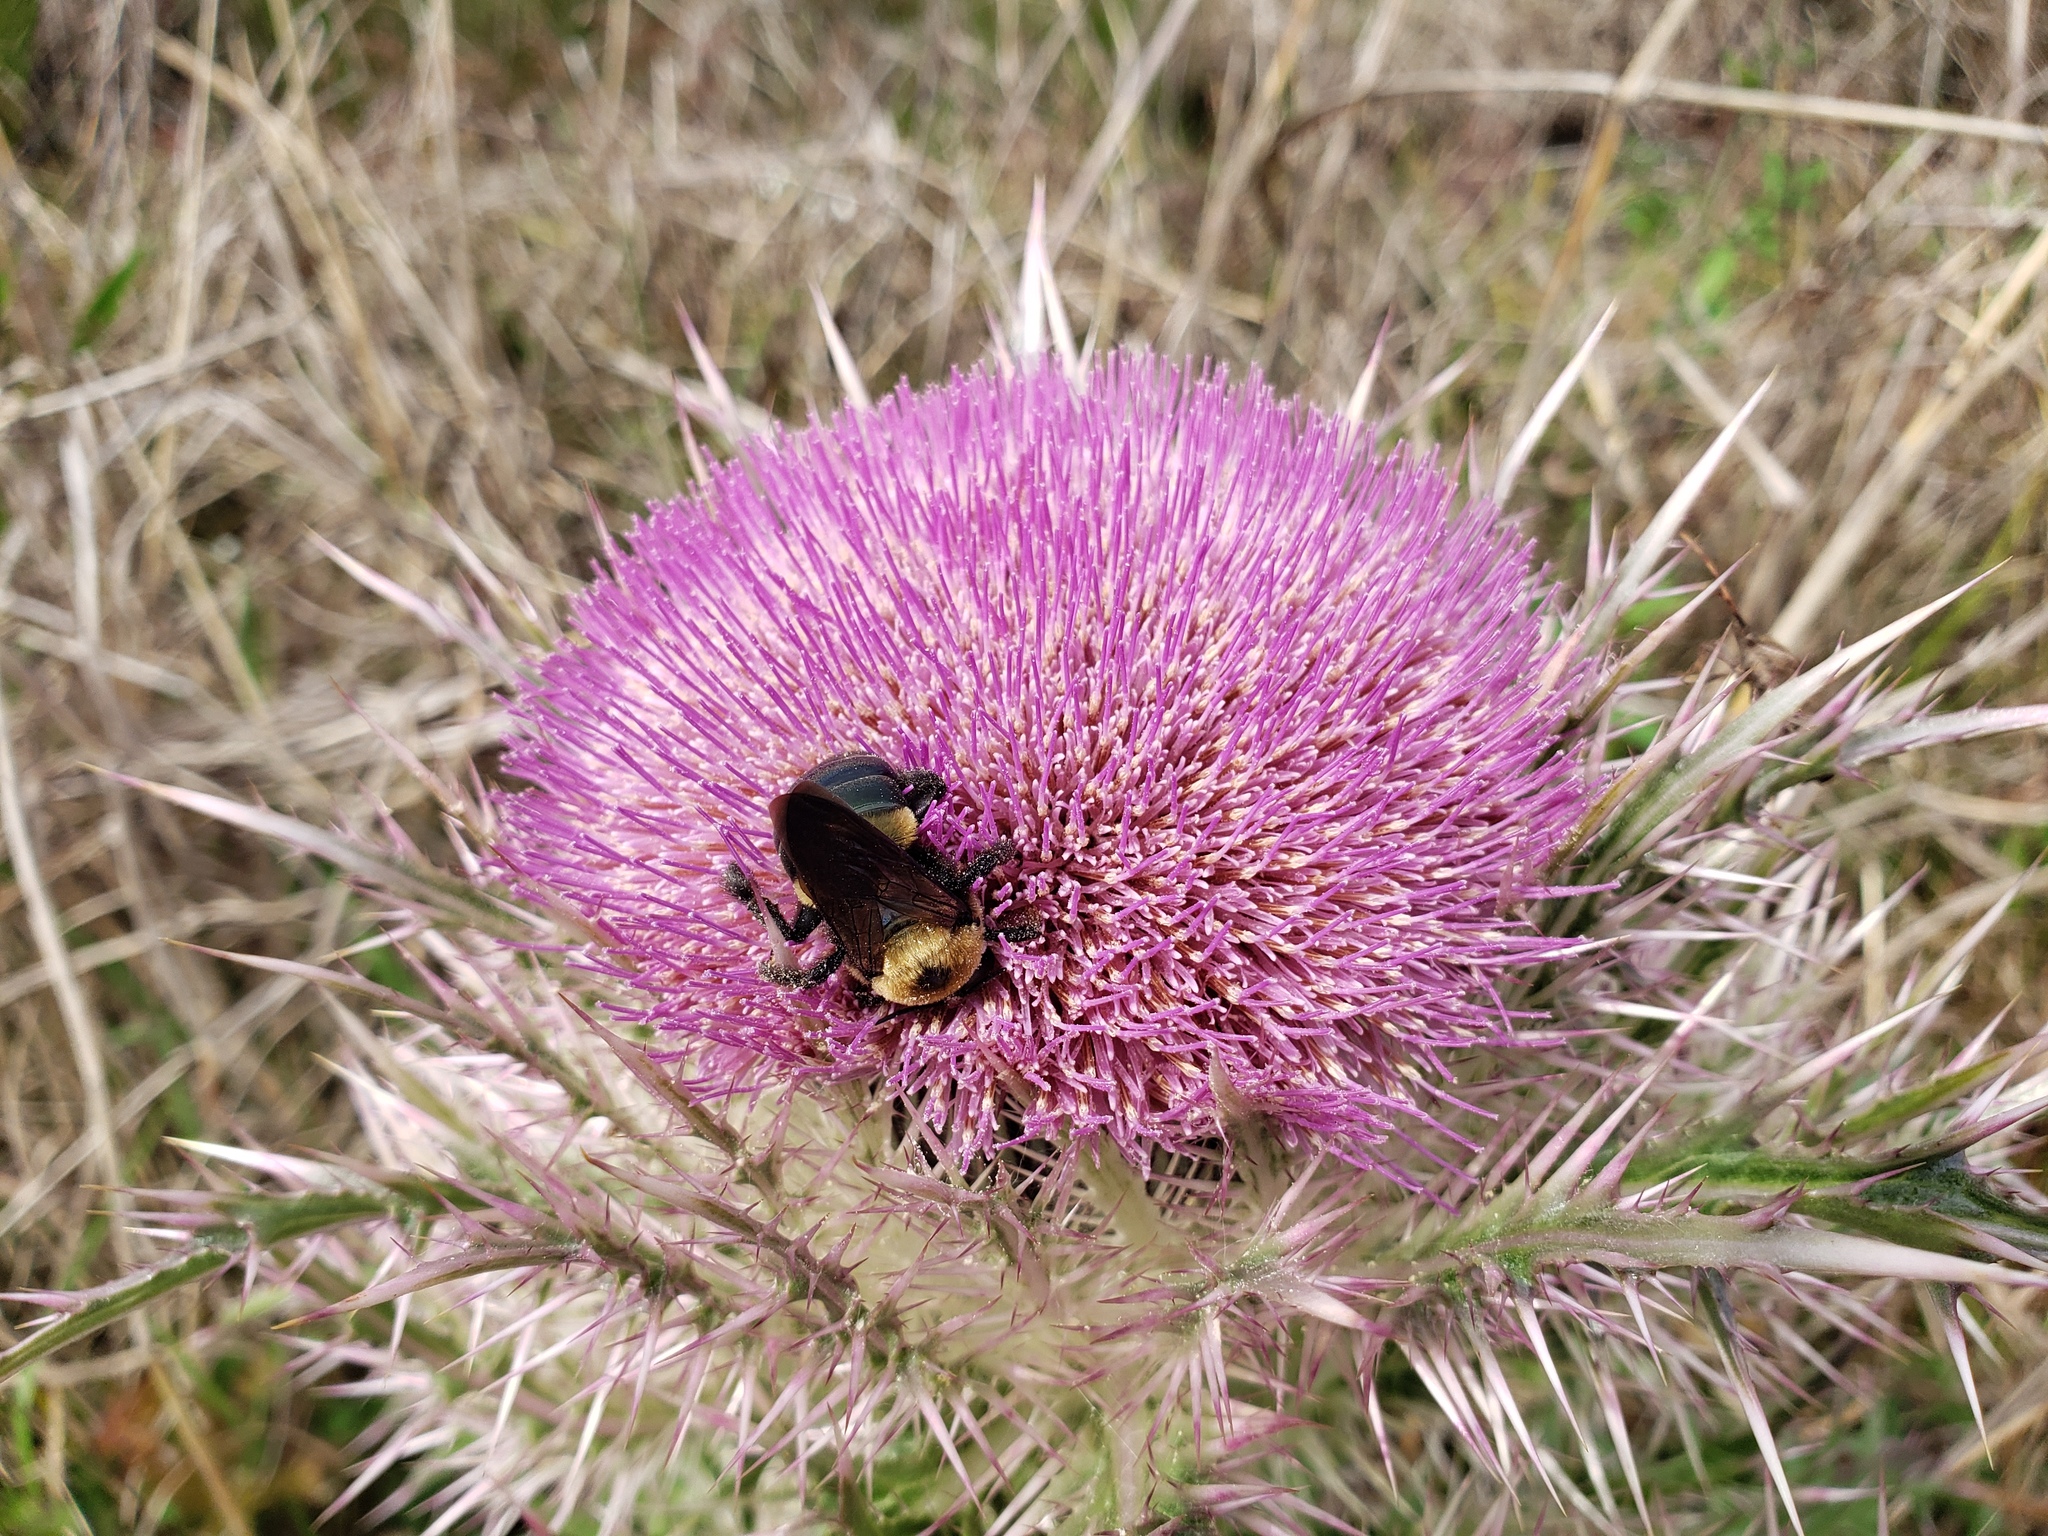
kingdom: Animalia
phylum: Arthropoda
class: Insecta
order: Hymenoptera
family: Apidae
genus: Xylocopa
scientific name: Xylocopa virginica
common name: Carpenter bee
